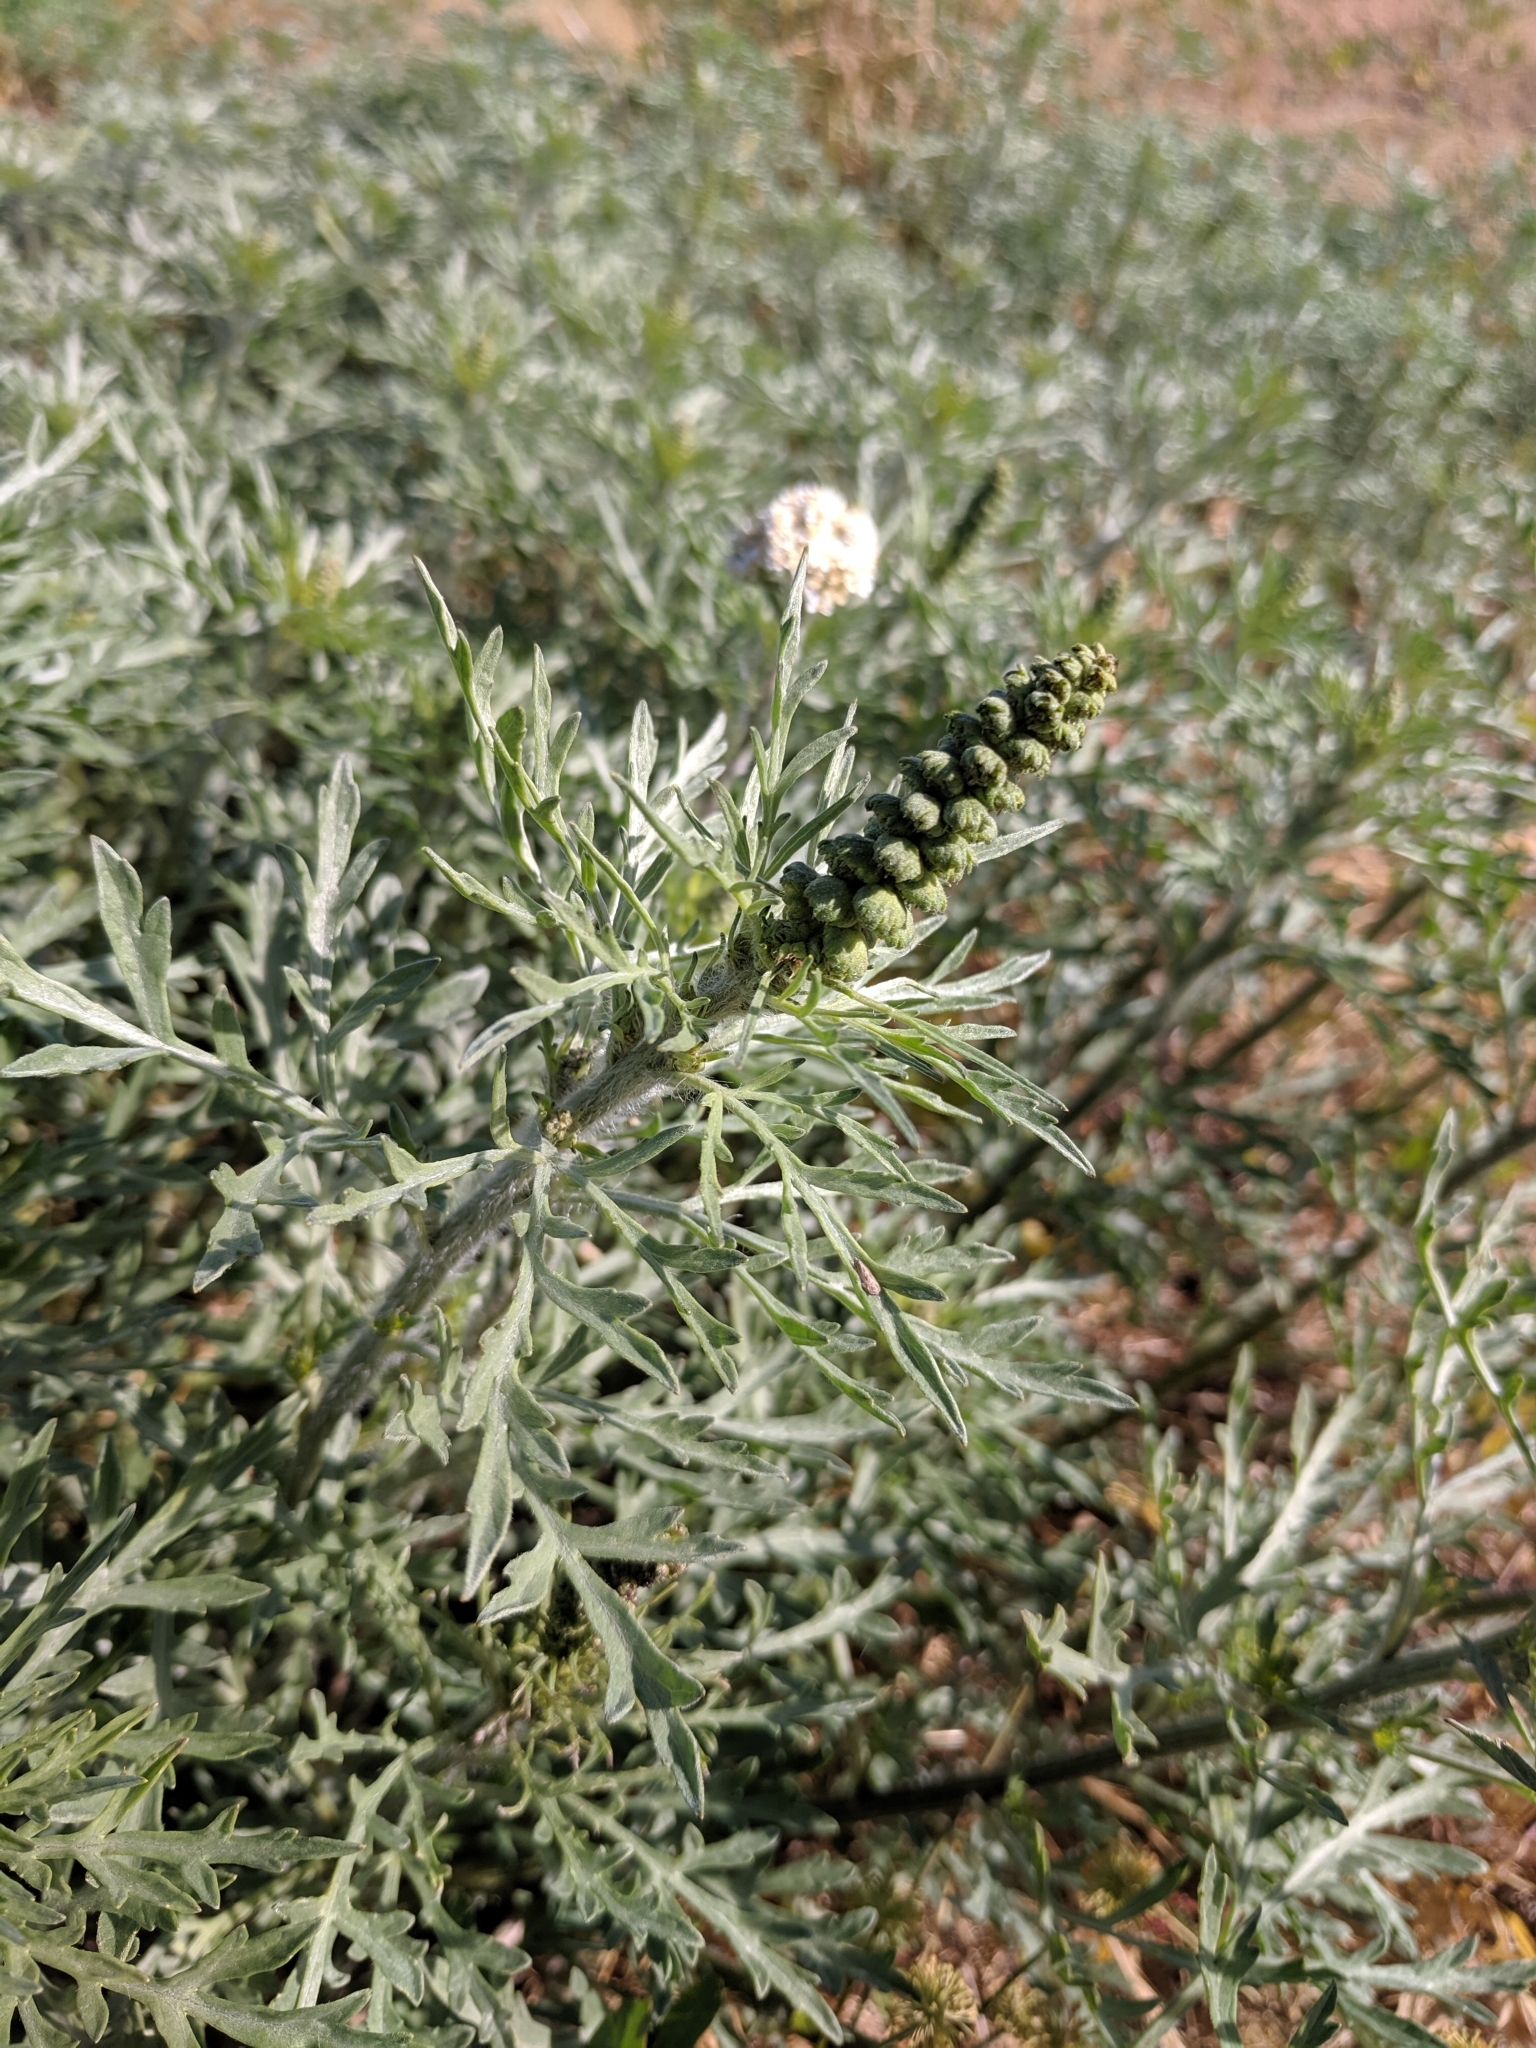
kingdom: Plantae
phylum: Tracheophyta
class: Magnoliopsida
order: Asterales
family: Asteraceae
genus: Ambrosia
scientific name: Ambrosia chamissonis
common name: Beachbur
